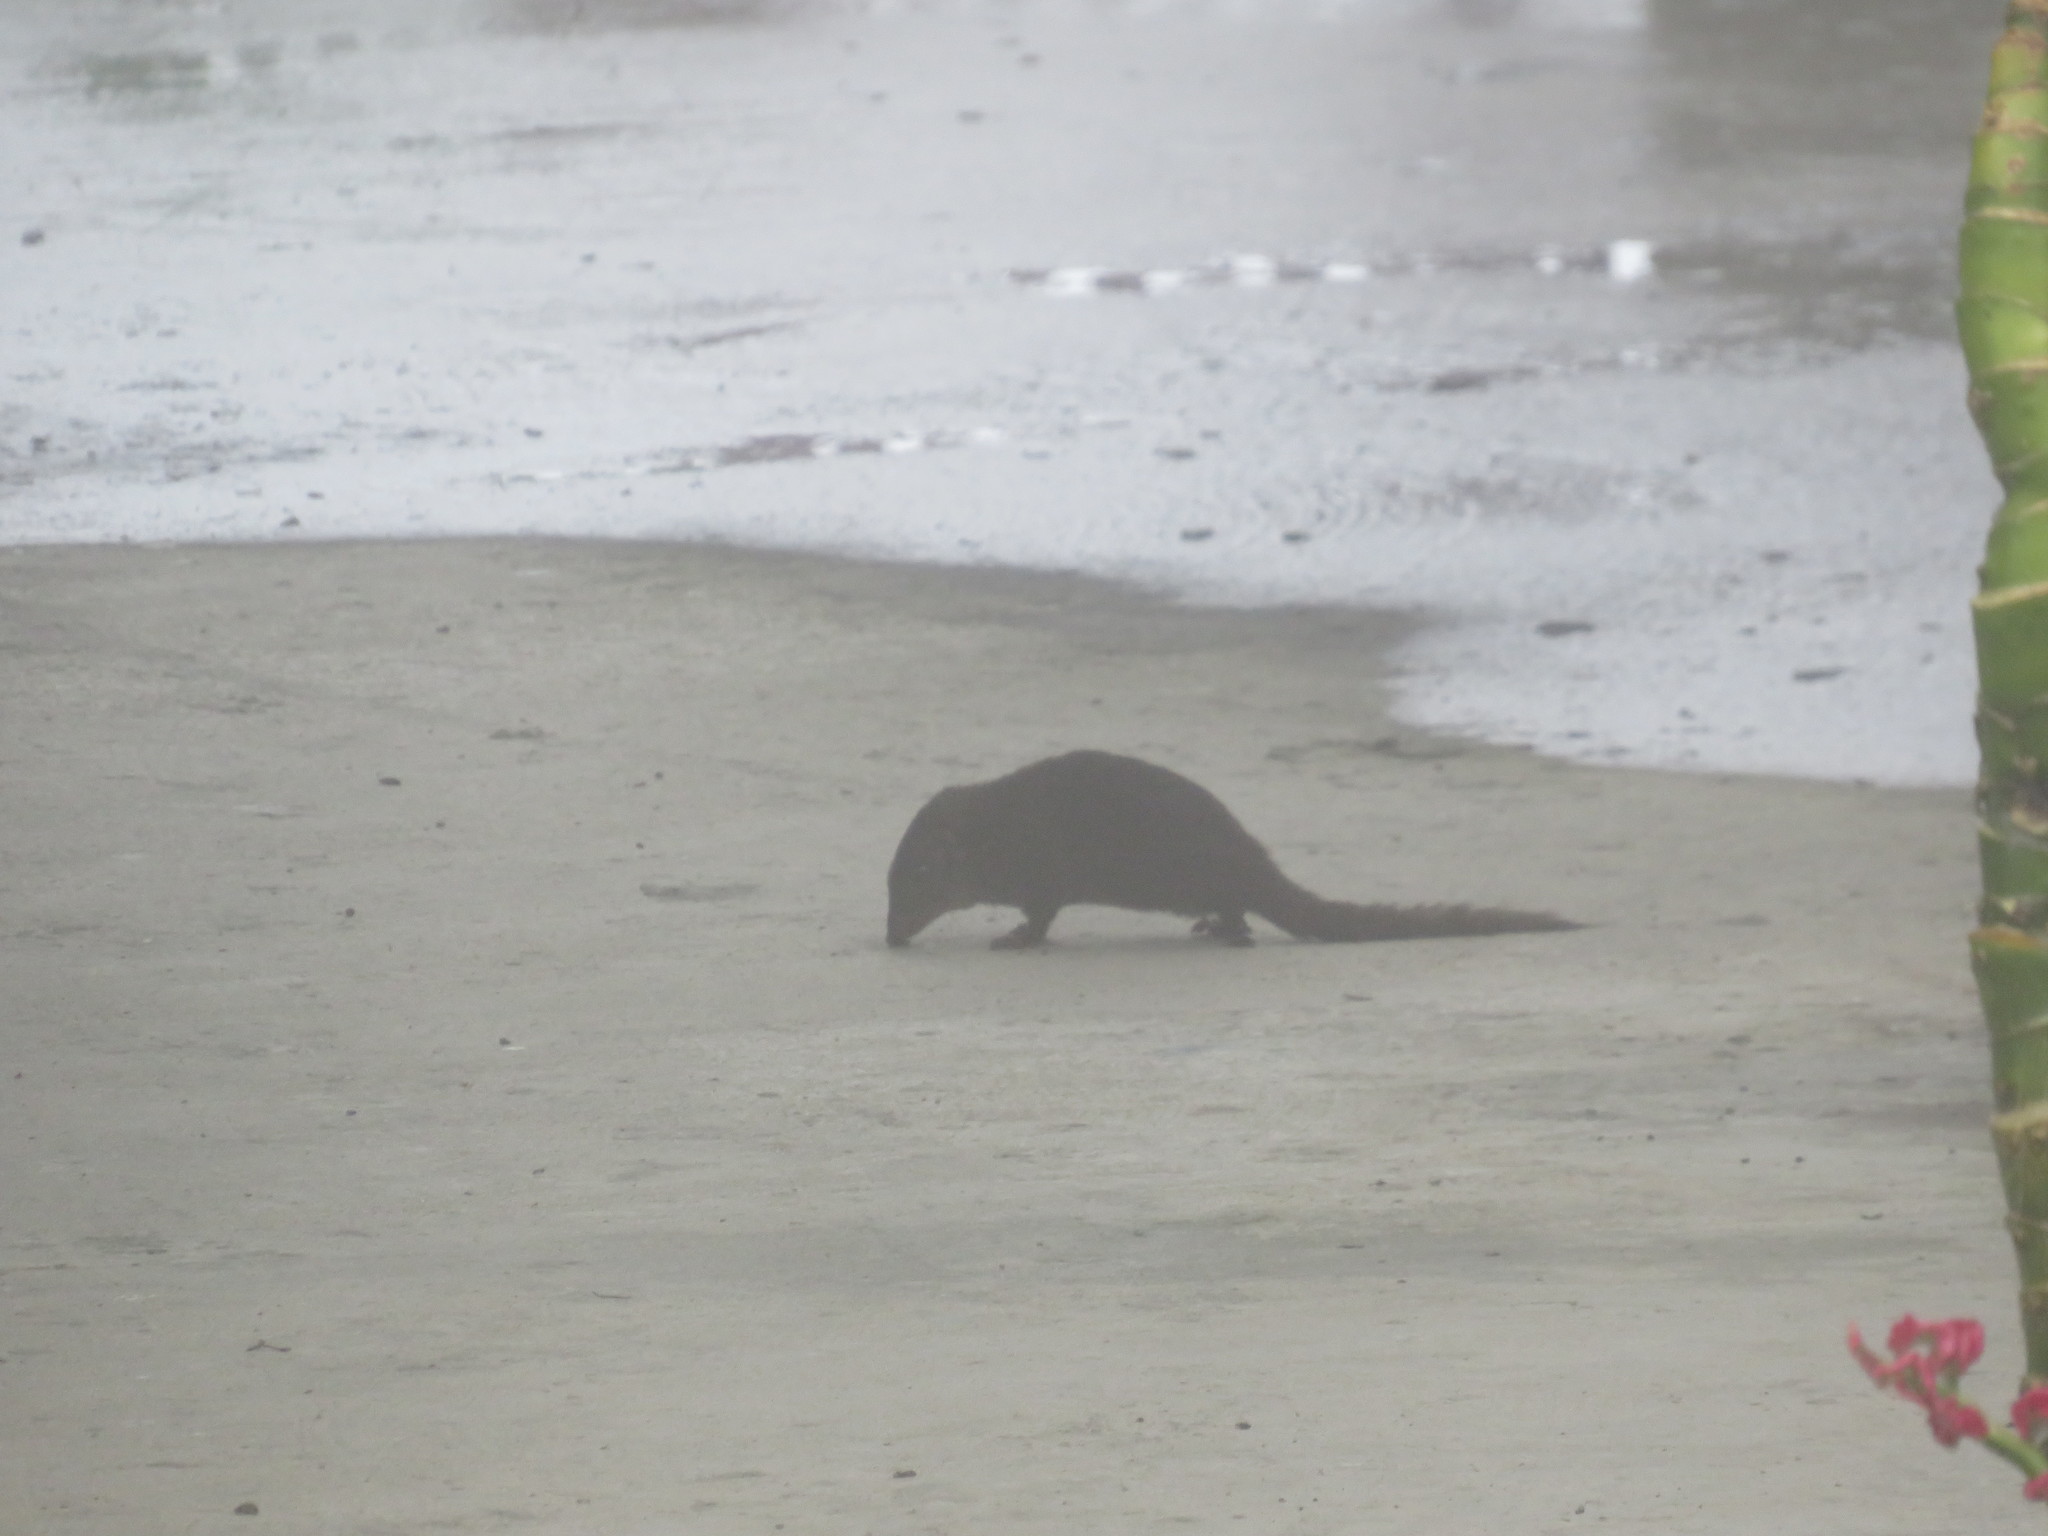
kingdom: Animalia
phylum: Chordata
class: Mammalia
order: Scandentia
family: Tupaiidae
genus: Tupaia
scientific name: Tupaia montana
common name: Mountain treeshrew
